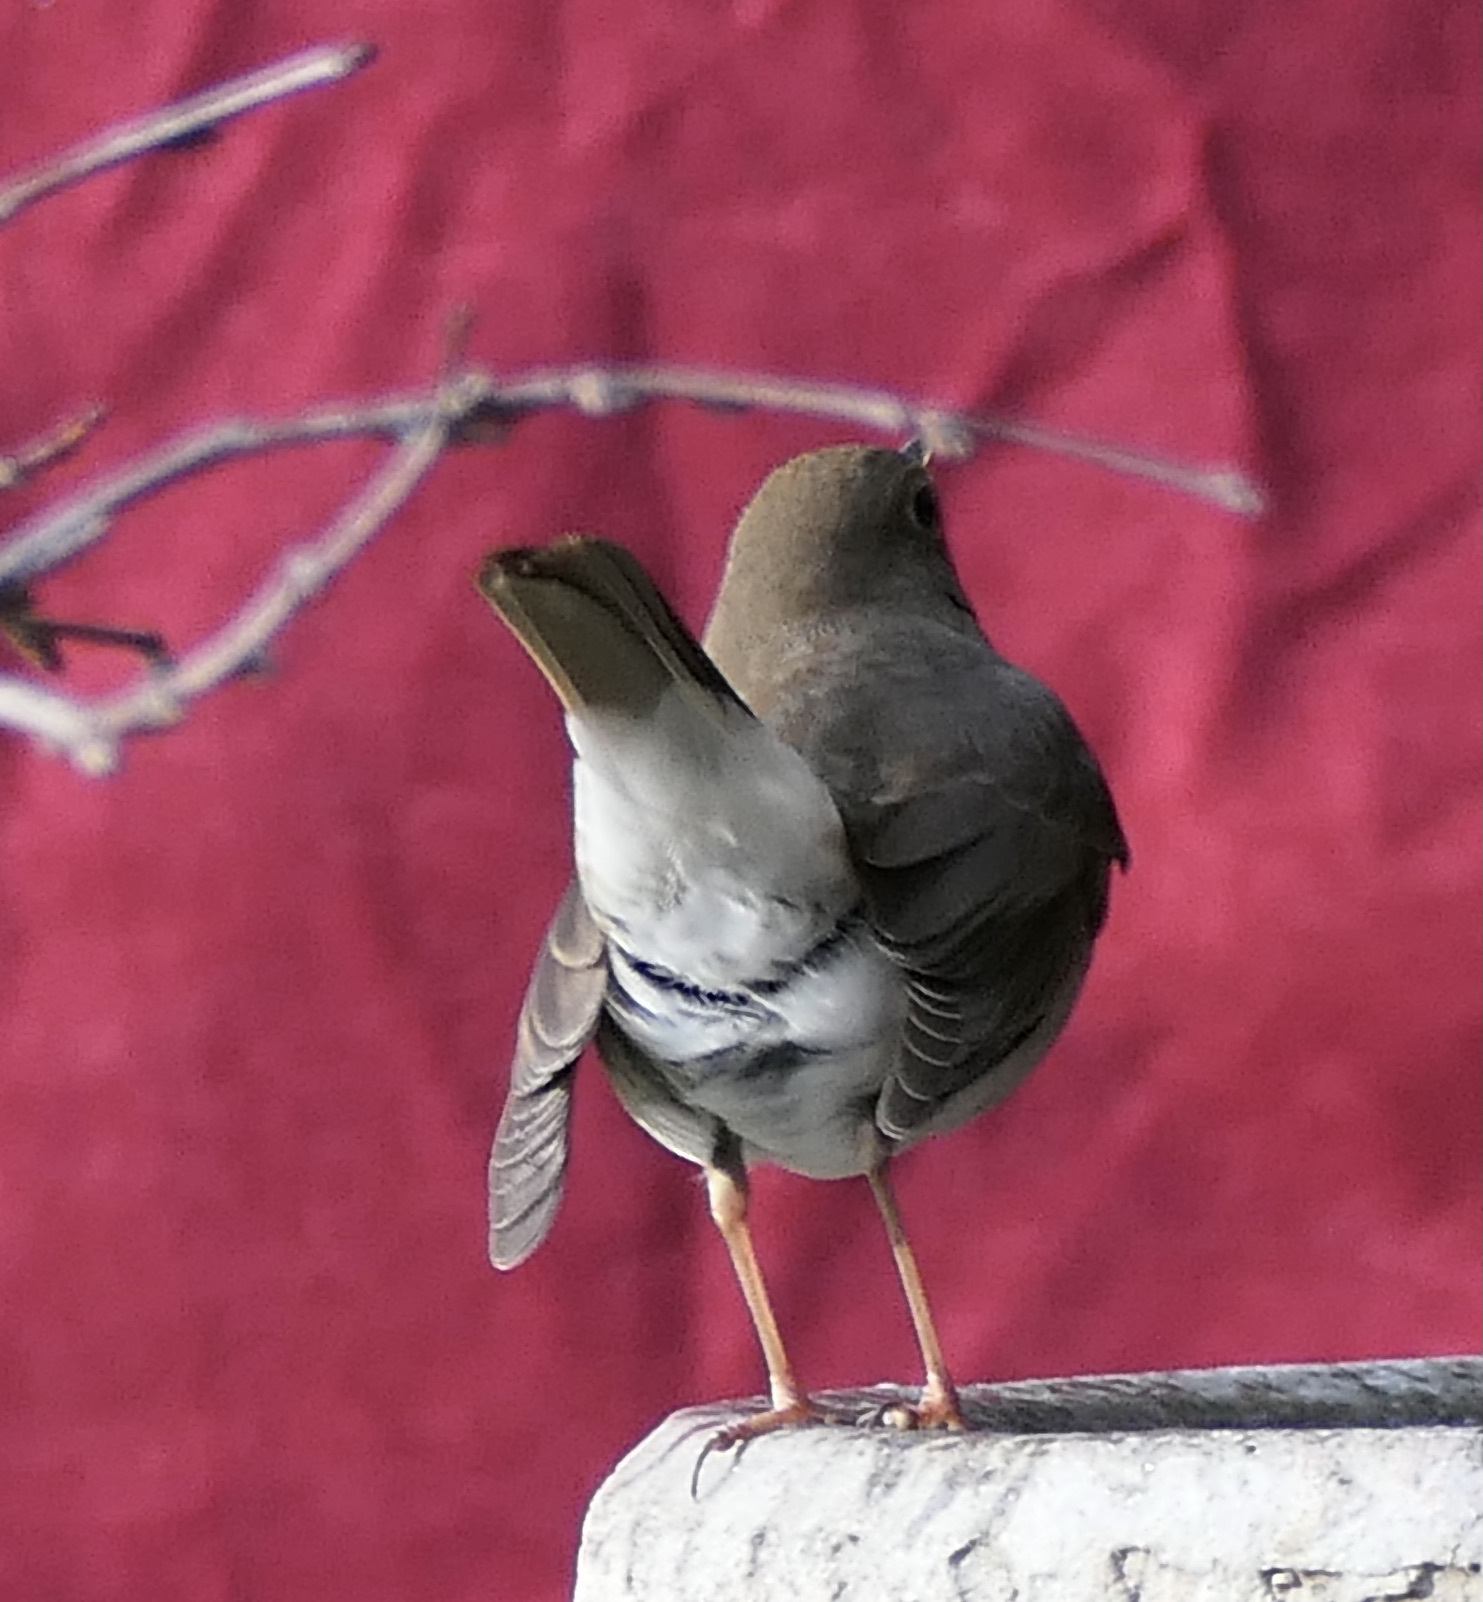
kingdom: Animalia
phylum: Chordata
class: Aves
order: Passeriformes
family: Turdidae
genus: Catharus
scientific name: Catharus guttatus
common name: Hermit thrush
